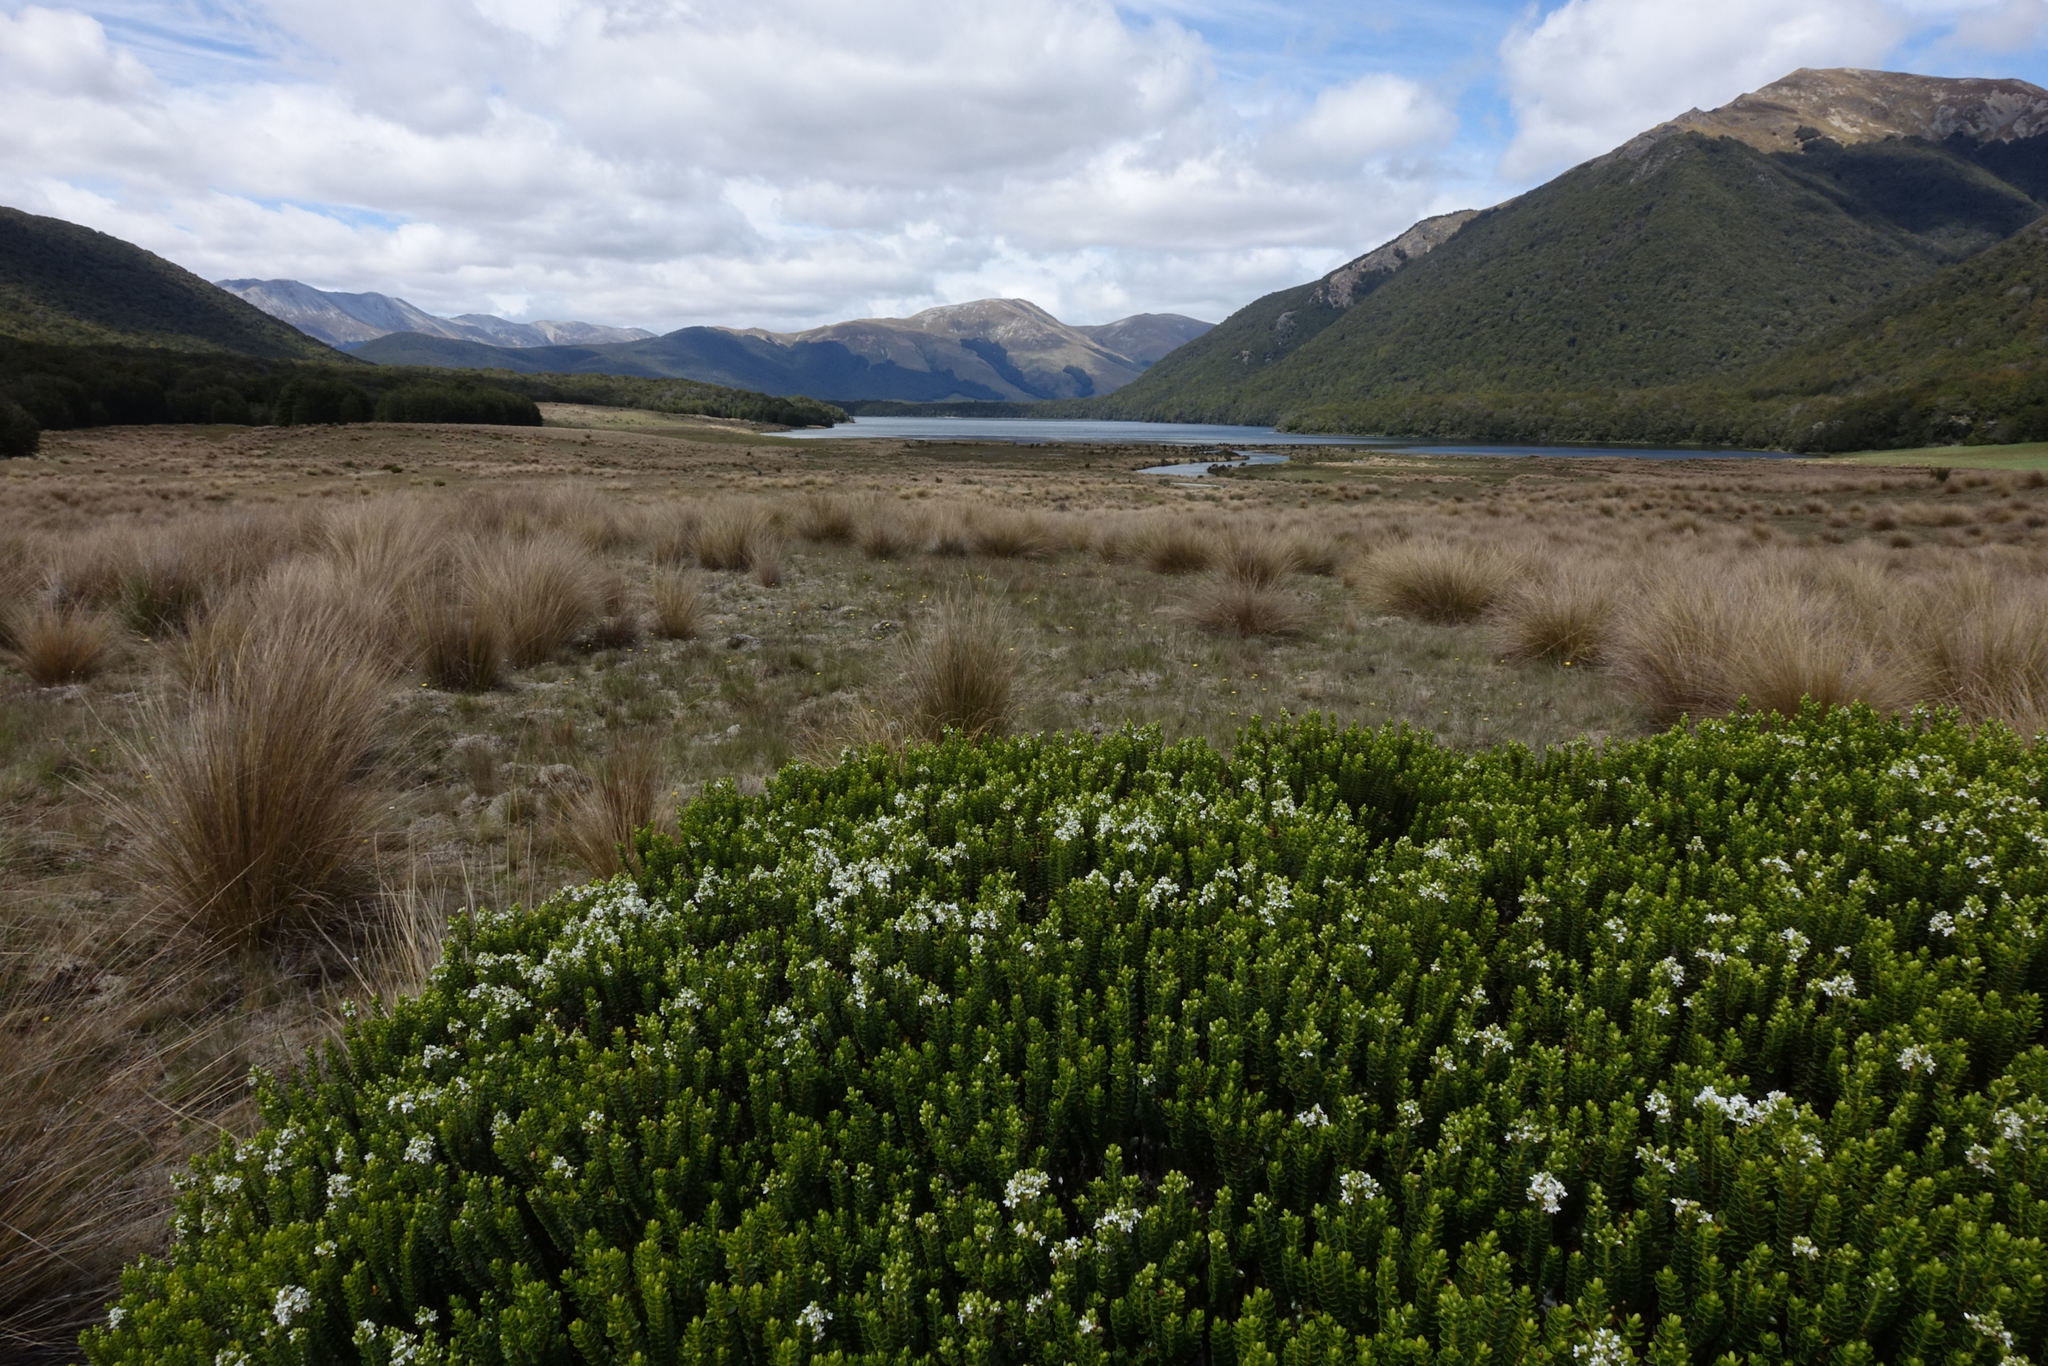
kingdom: Plantae
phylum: Tracheophyta
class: Magnoliopsida
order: Lamiales
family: Plantaginaceae
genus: Veronica
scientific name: Veronica odora
